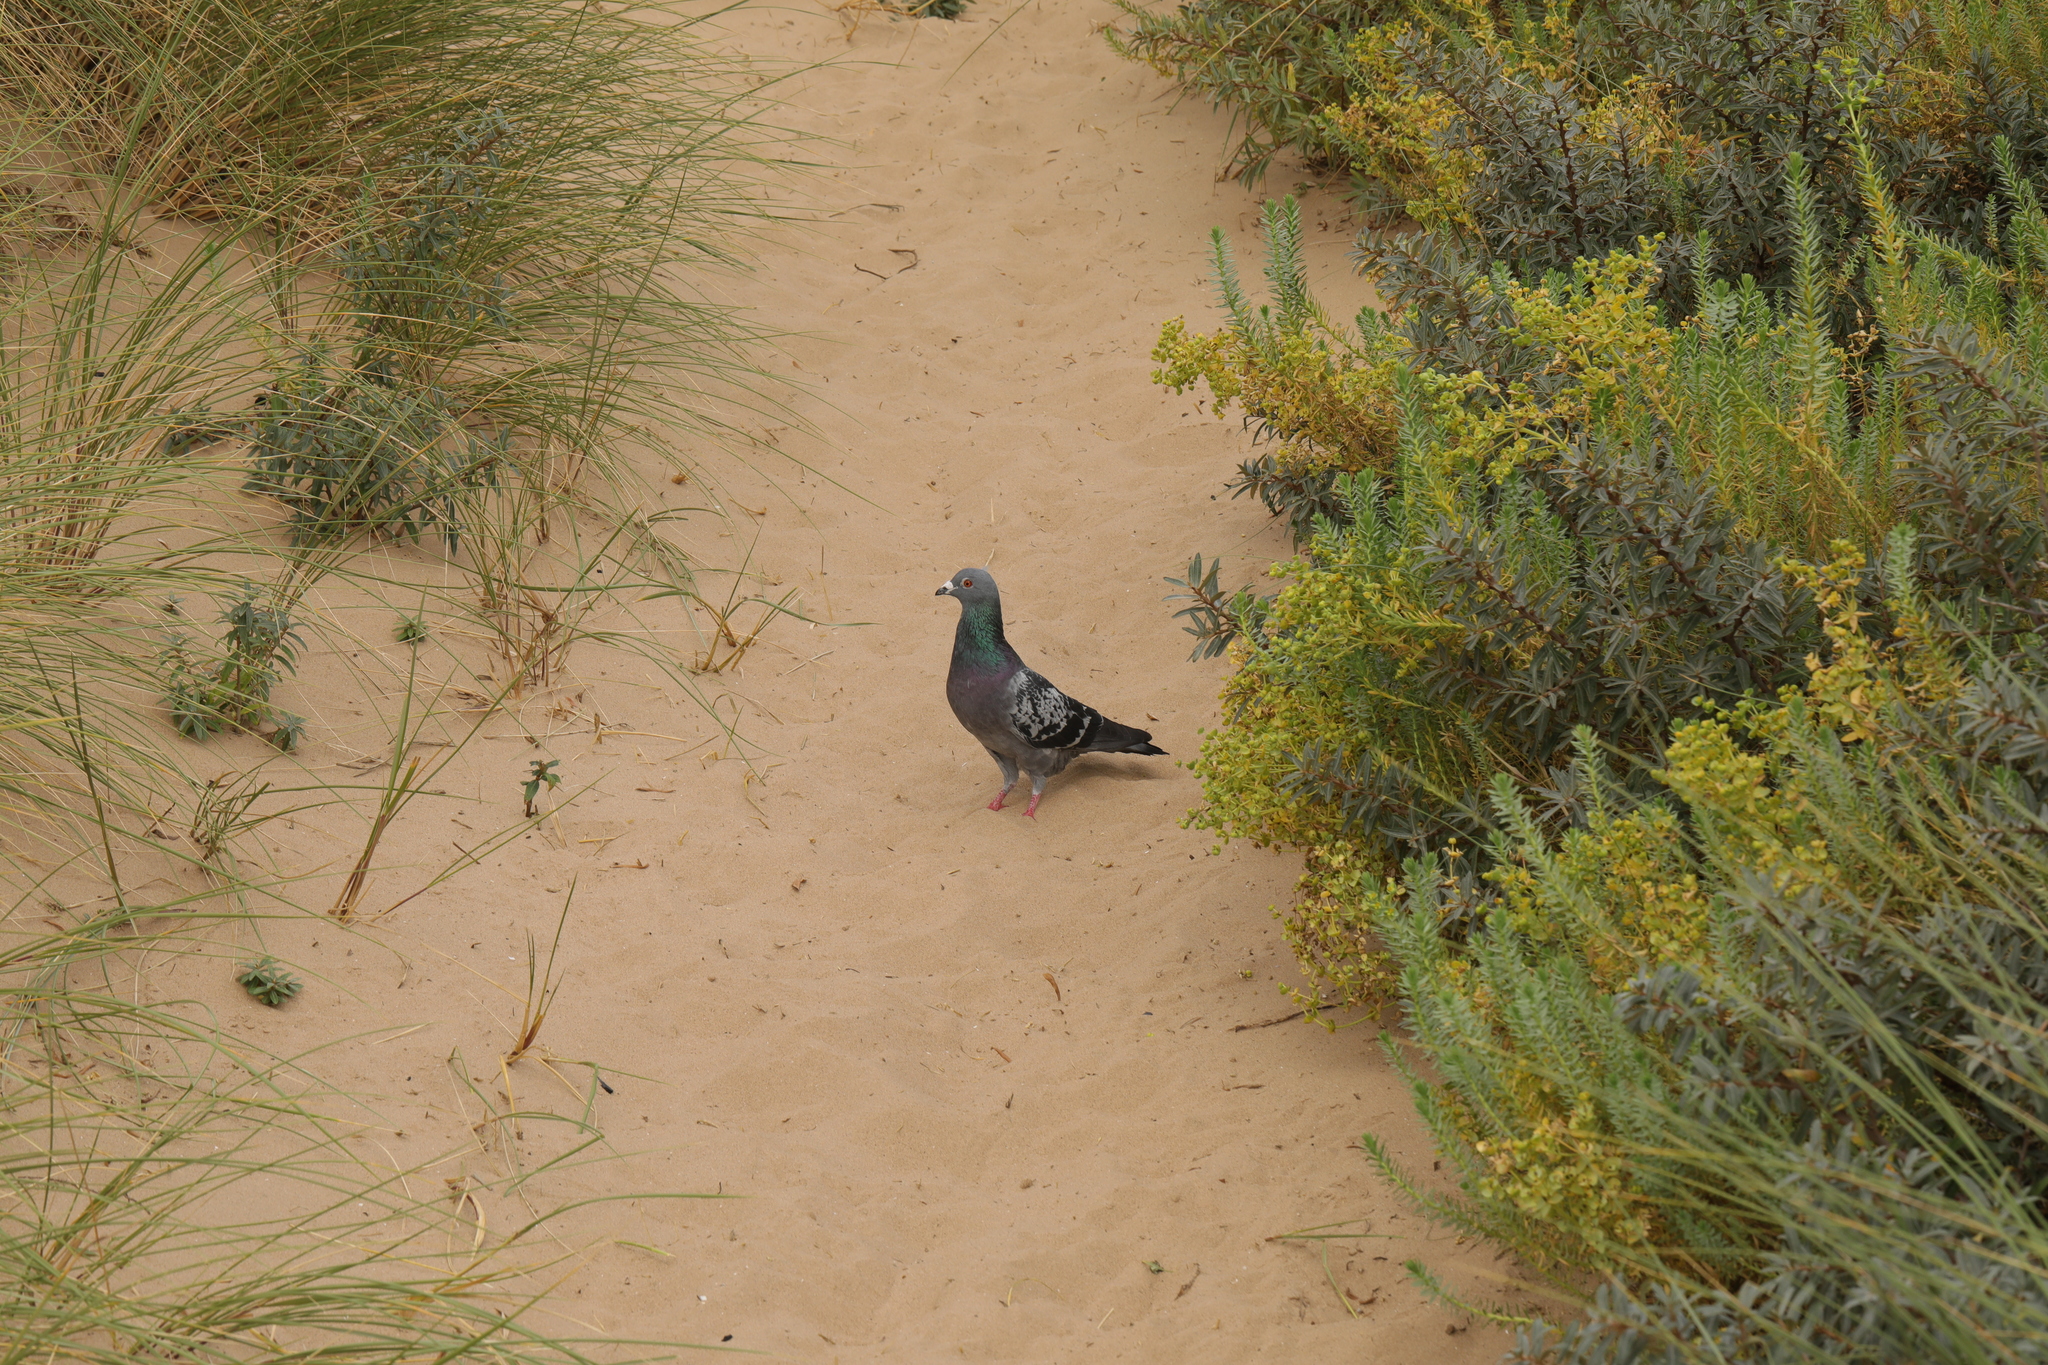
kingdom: Animalia
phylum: Chordata
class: Aves
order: Columbiformes
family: Columbidae
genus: Columba
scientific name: Columba livia
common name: Rock pigeon
